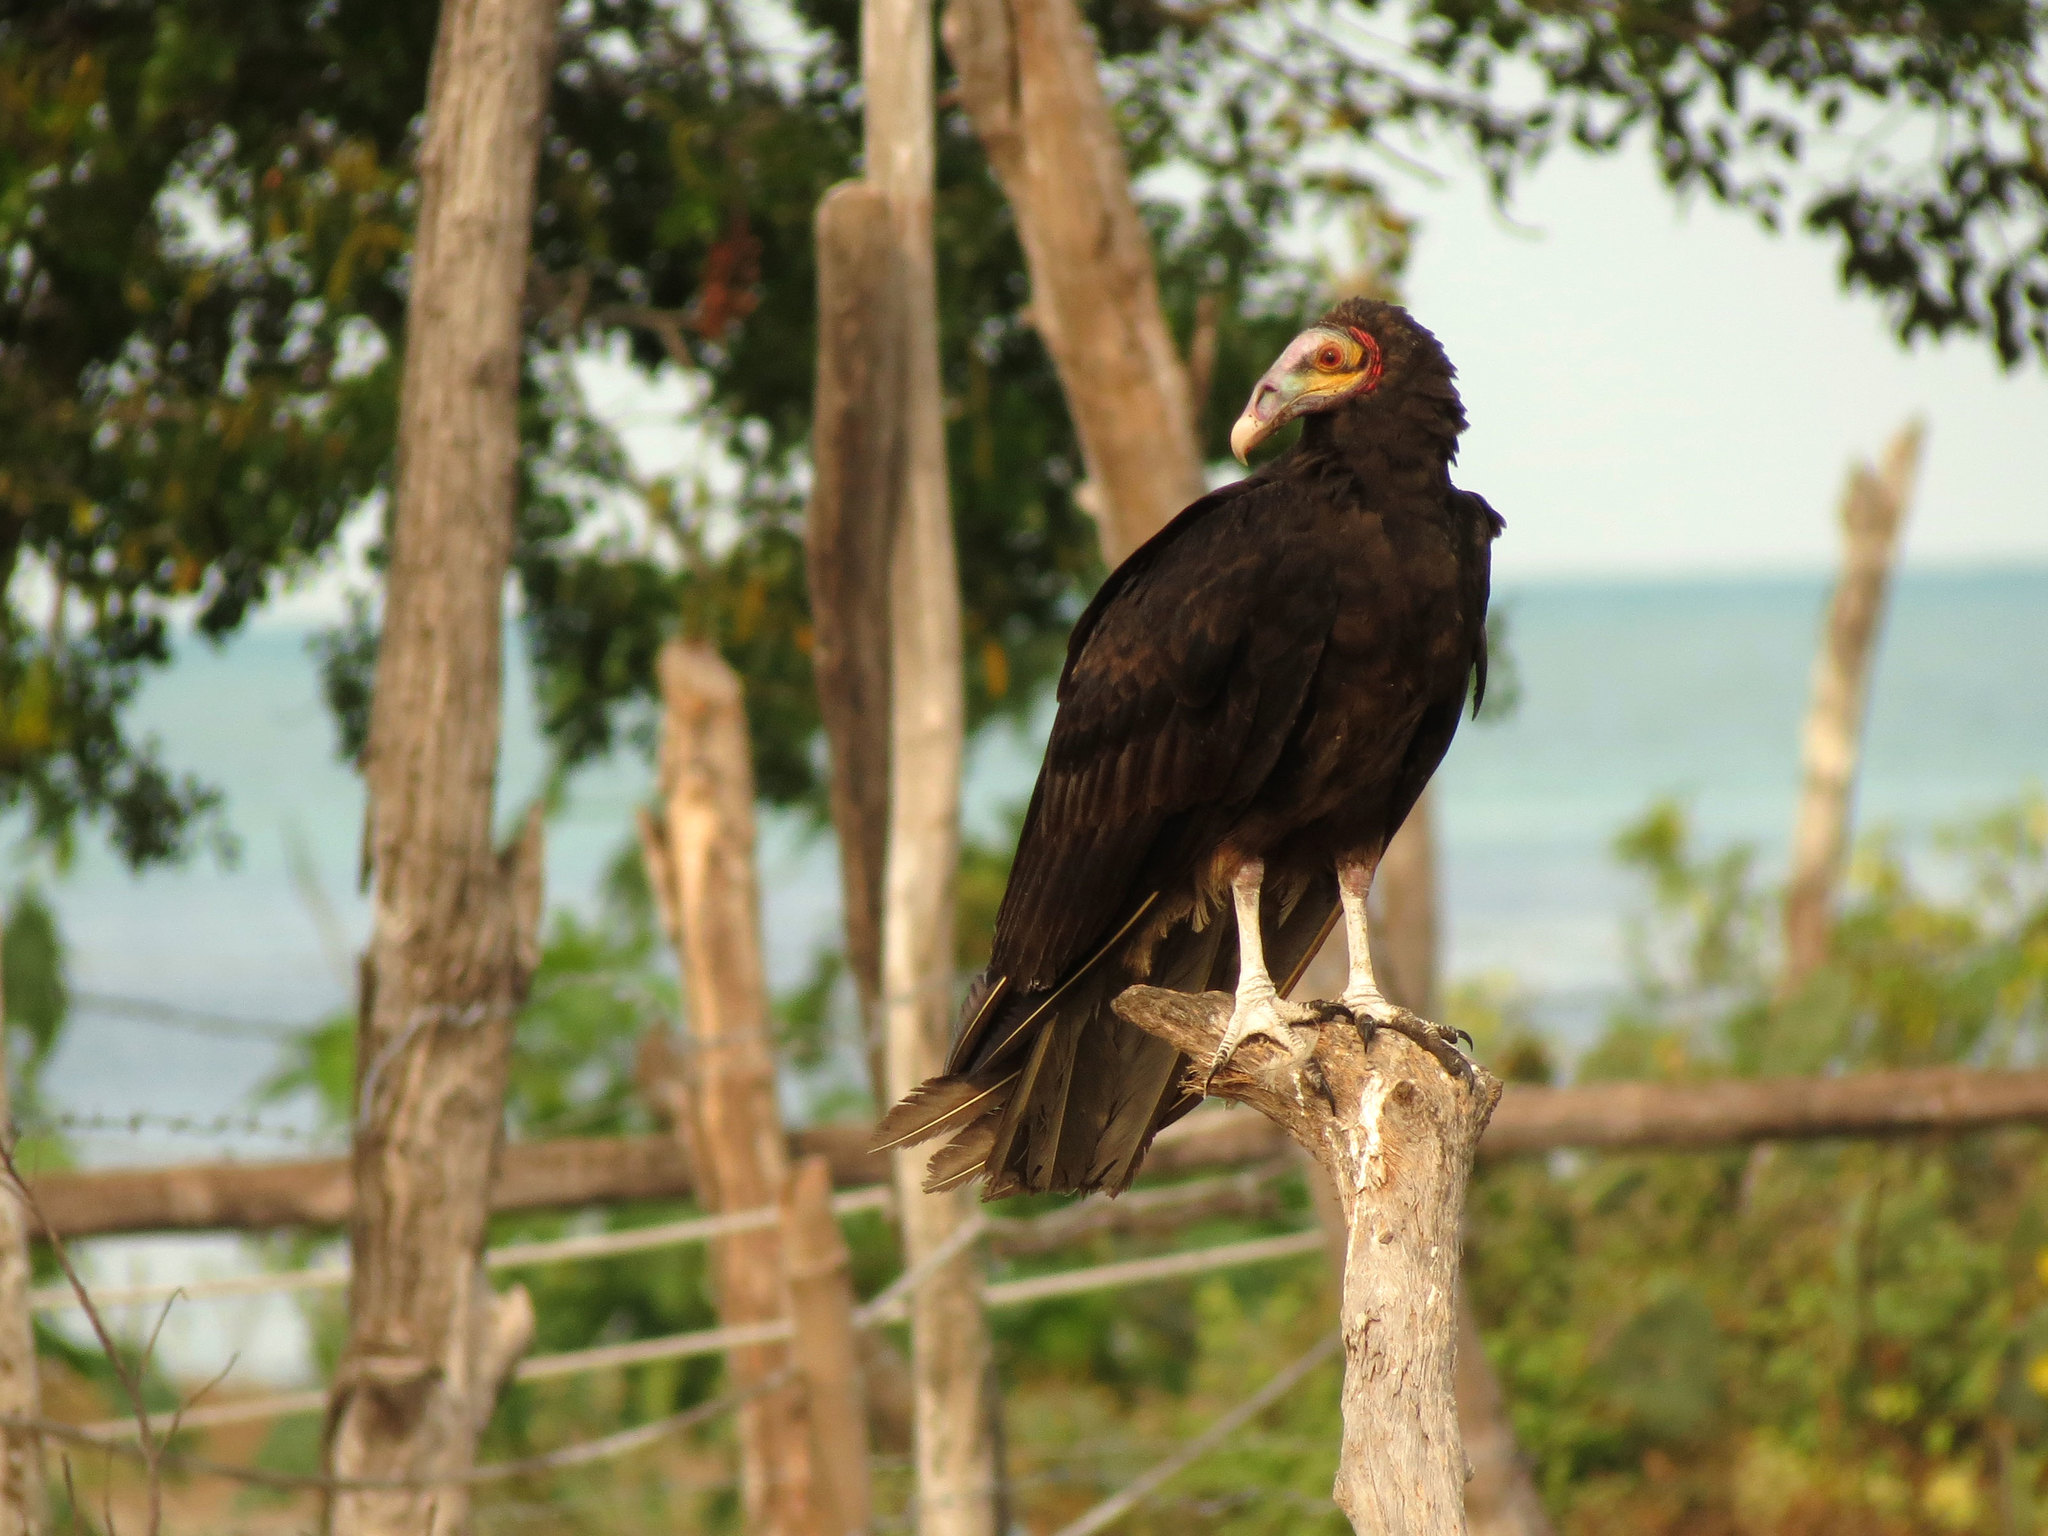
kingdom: Animalia
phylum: Chordata
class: Aves
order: Accipitriformes
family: Cathartidae
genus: Cathartes
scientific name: Cathartes burrovianus
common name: Lesser yellow-headed vulture
